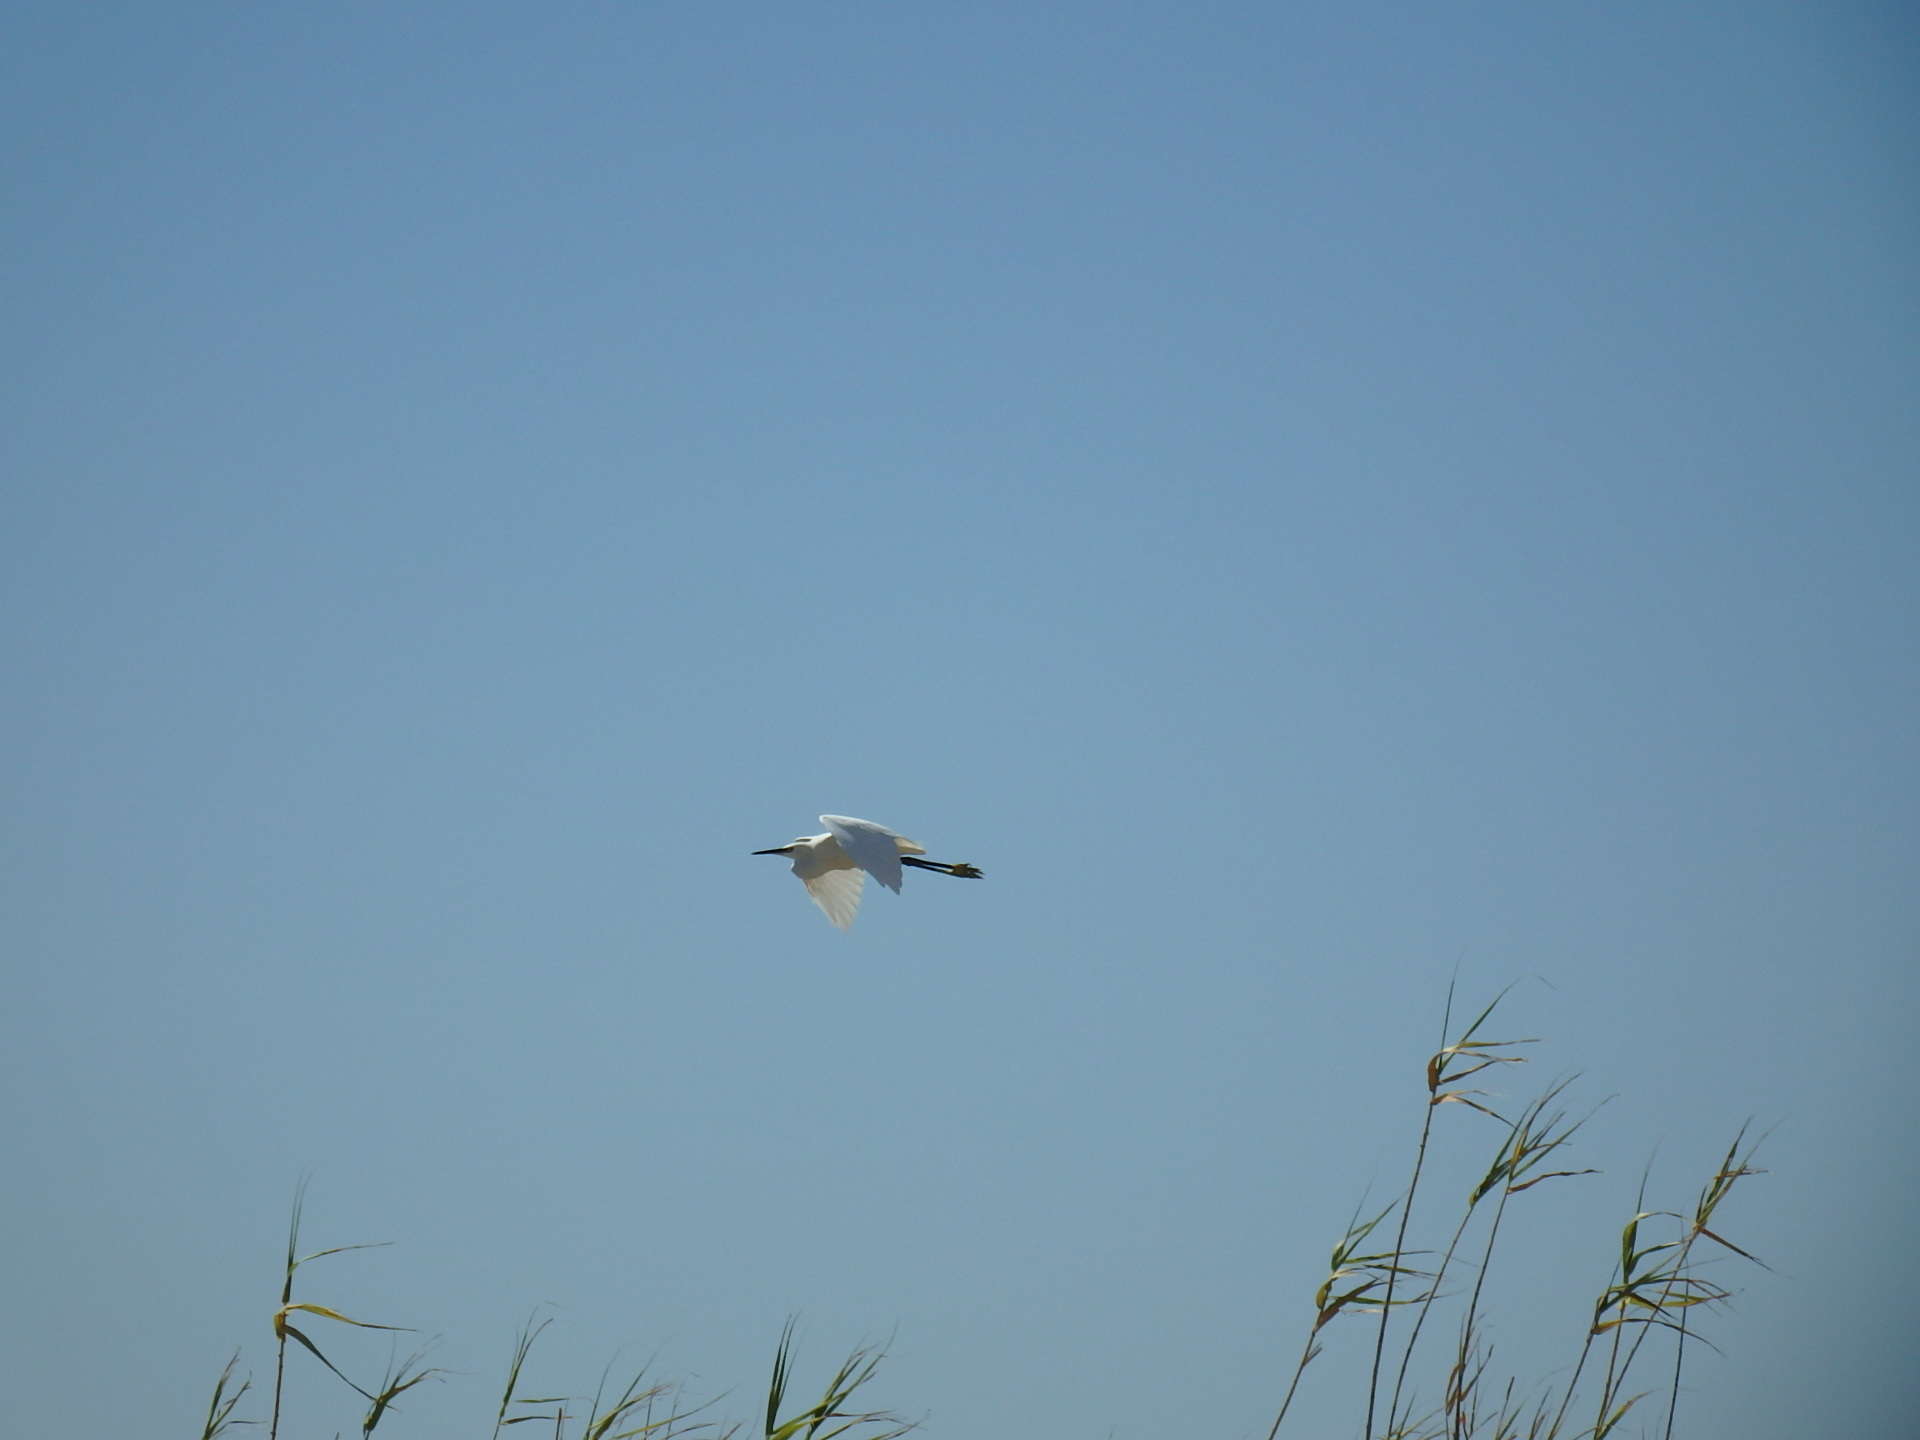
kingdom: Animalia
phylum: Chordata
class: Aves
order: Pelecaniformes
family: Ardeidae
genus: Egretta
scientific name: Egretta garzetta
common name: Little egret
